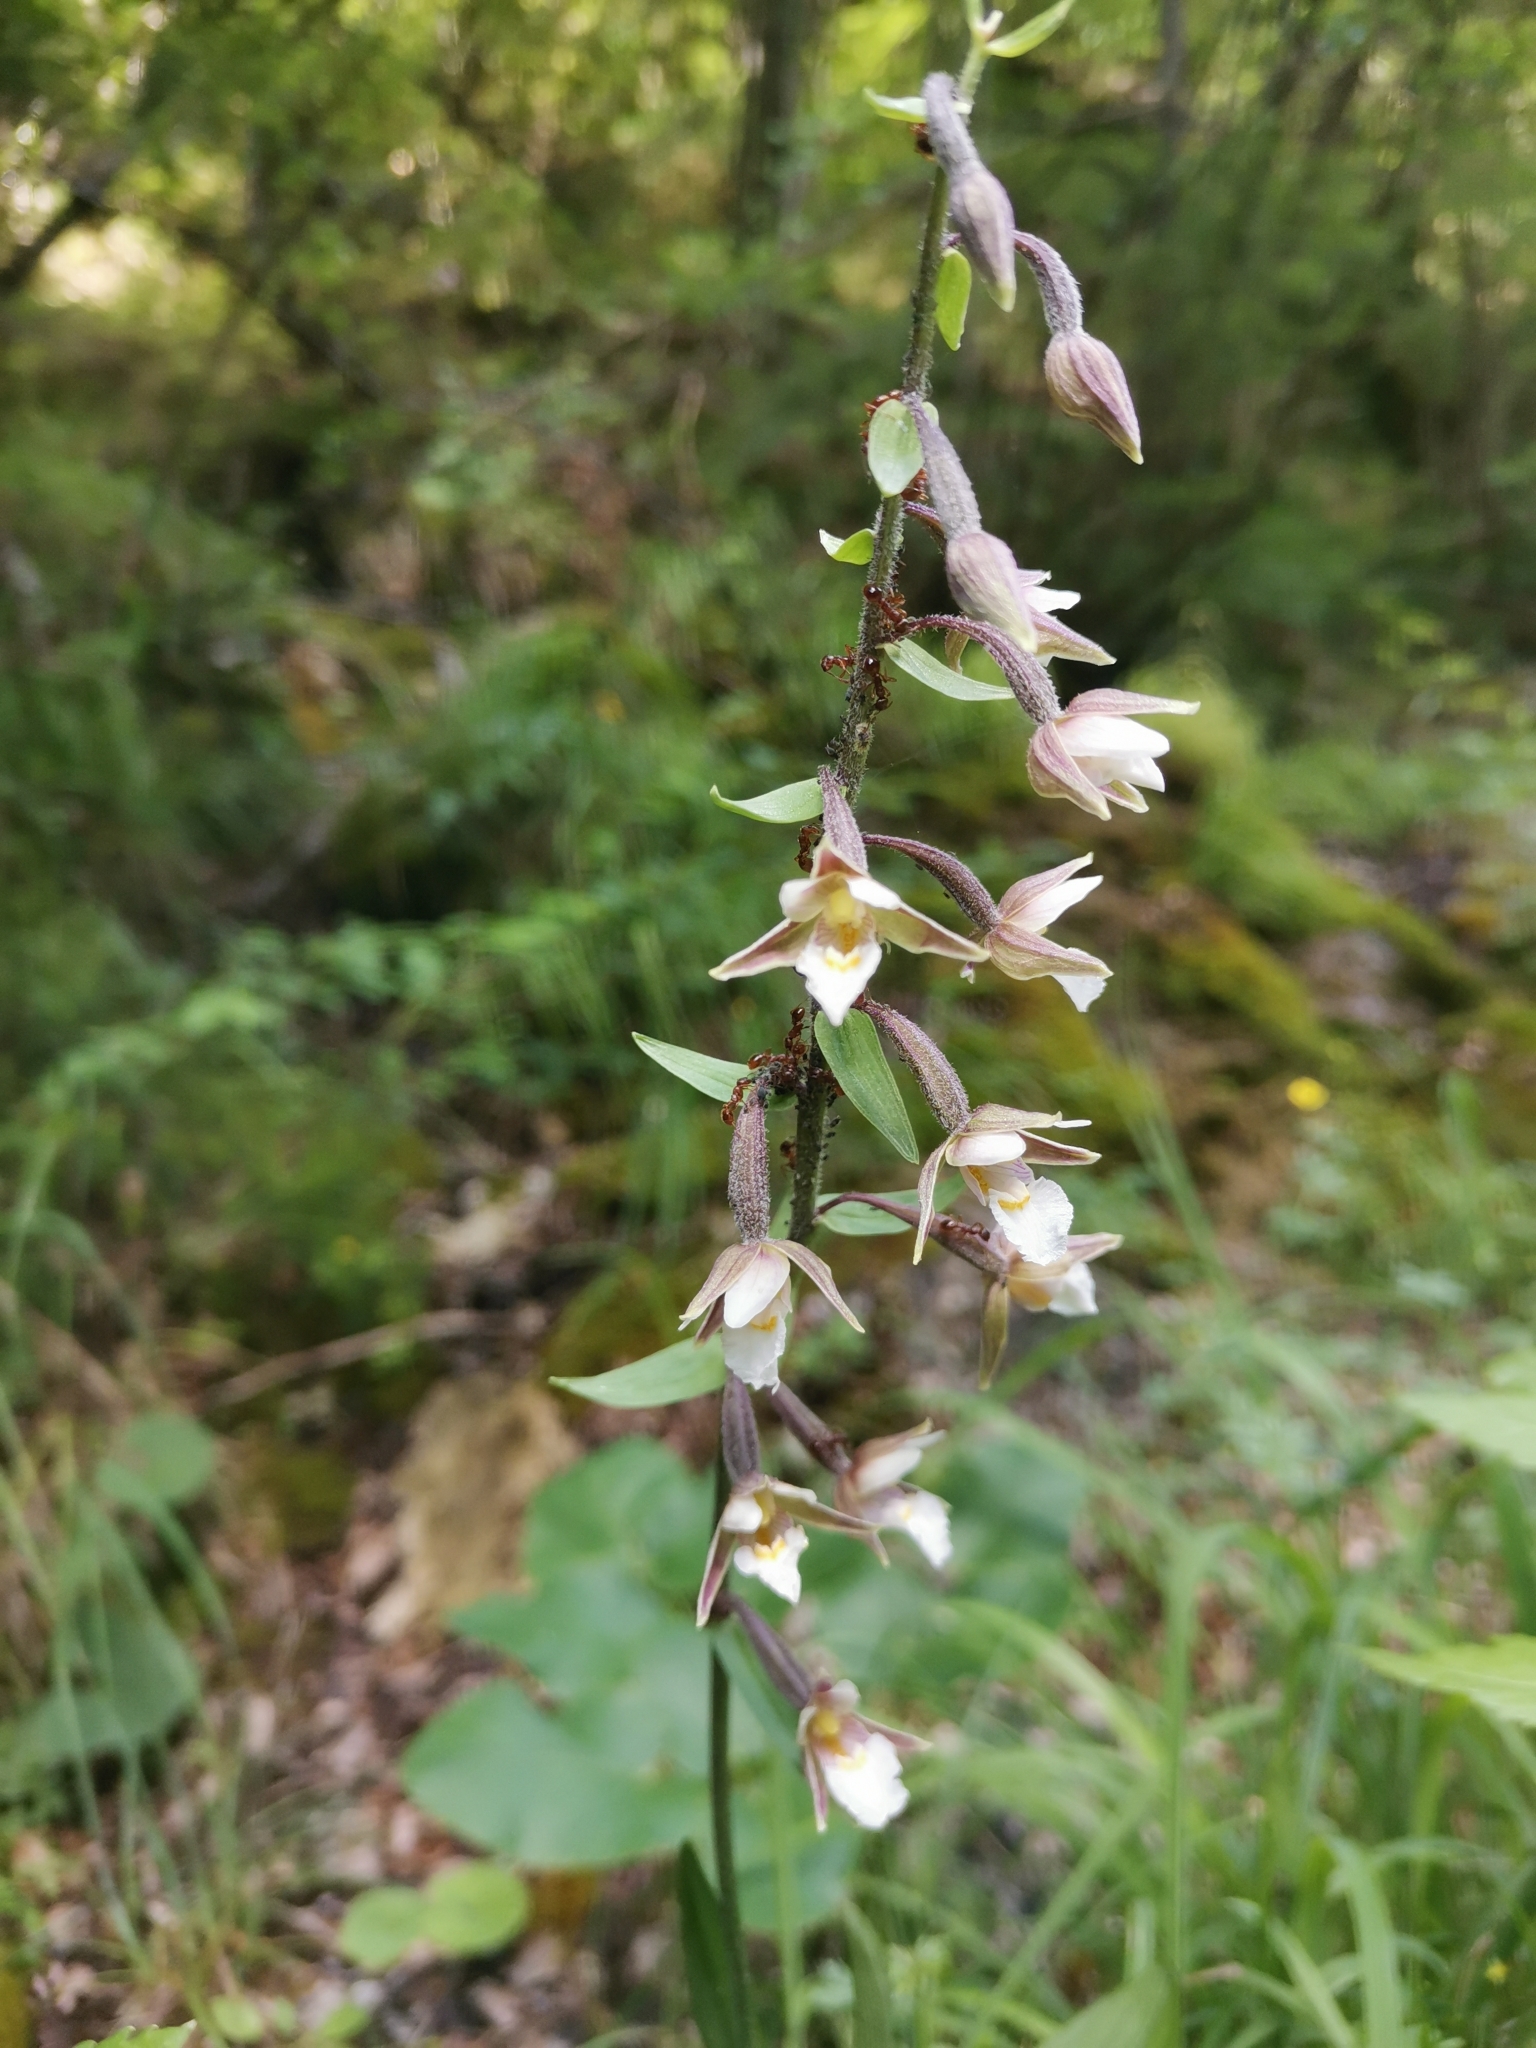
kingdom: Plantae
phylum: Tracheophyta
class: Liliopsida
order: Asparagales
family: Orchidaceae
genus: Epipactis
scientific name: Epipactis palustris
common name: Marsh helleborine
